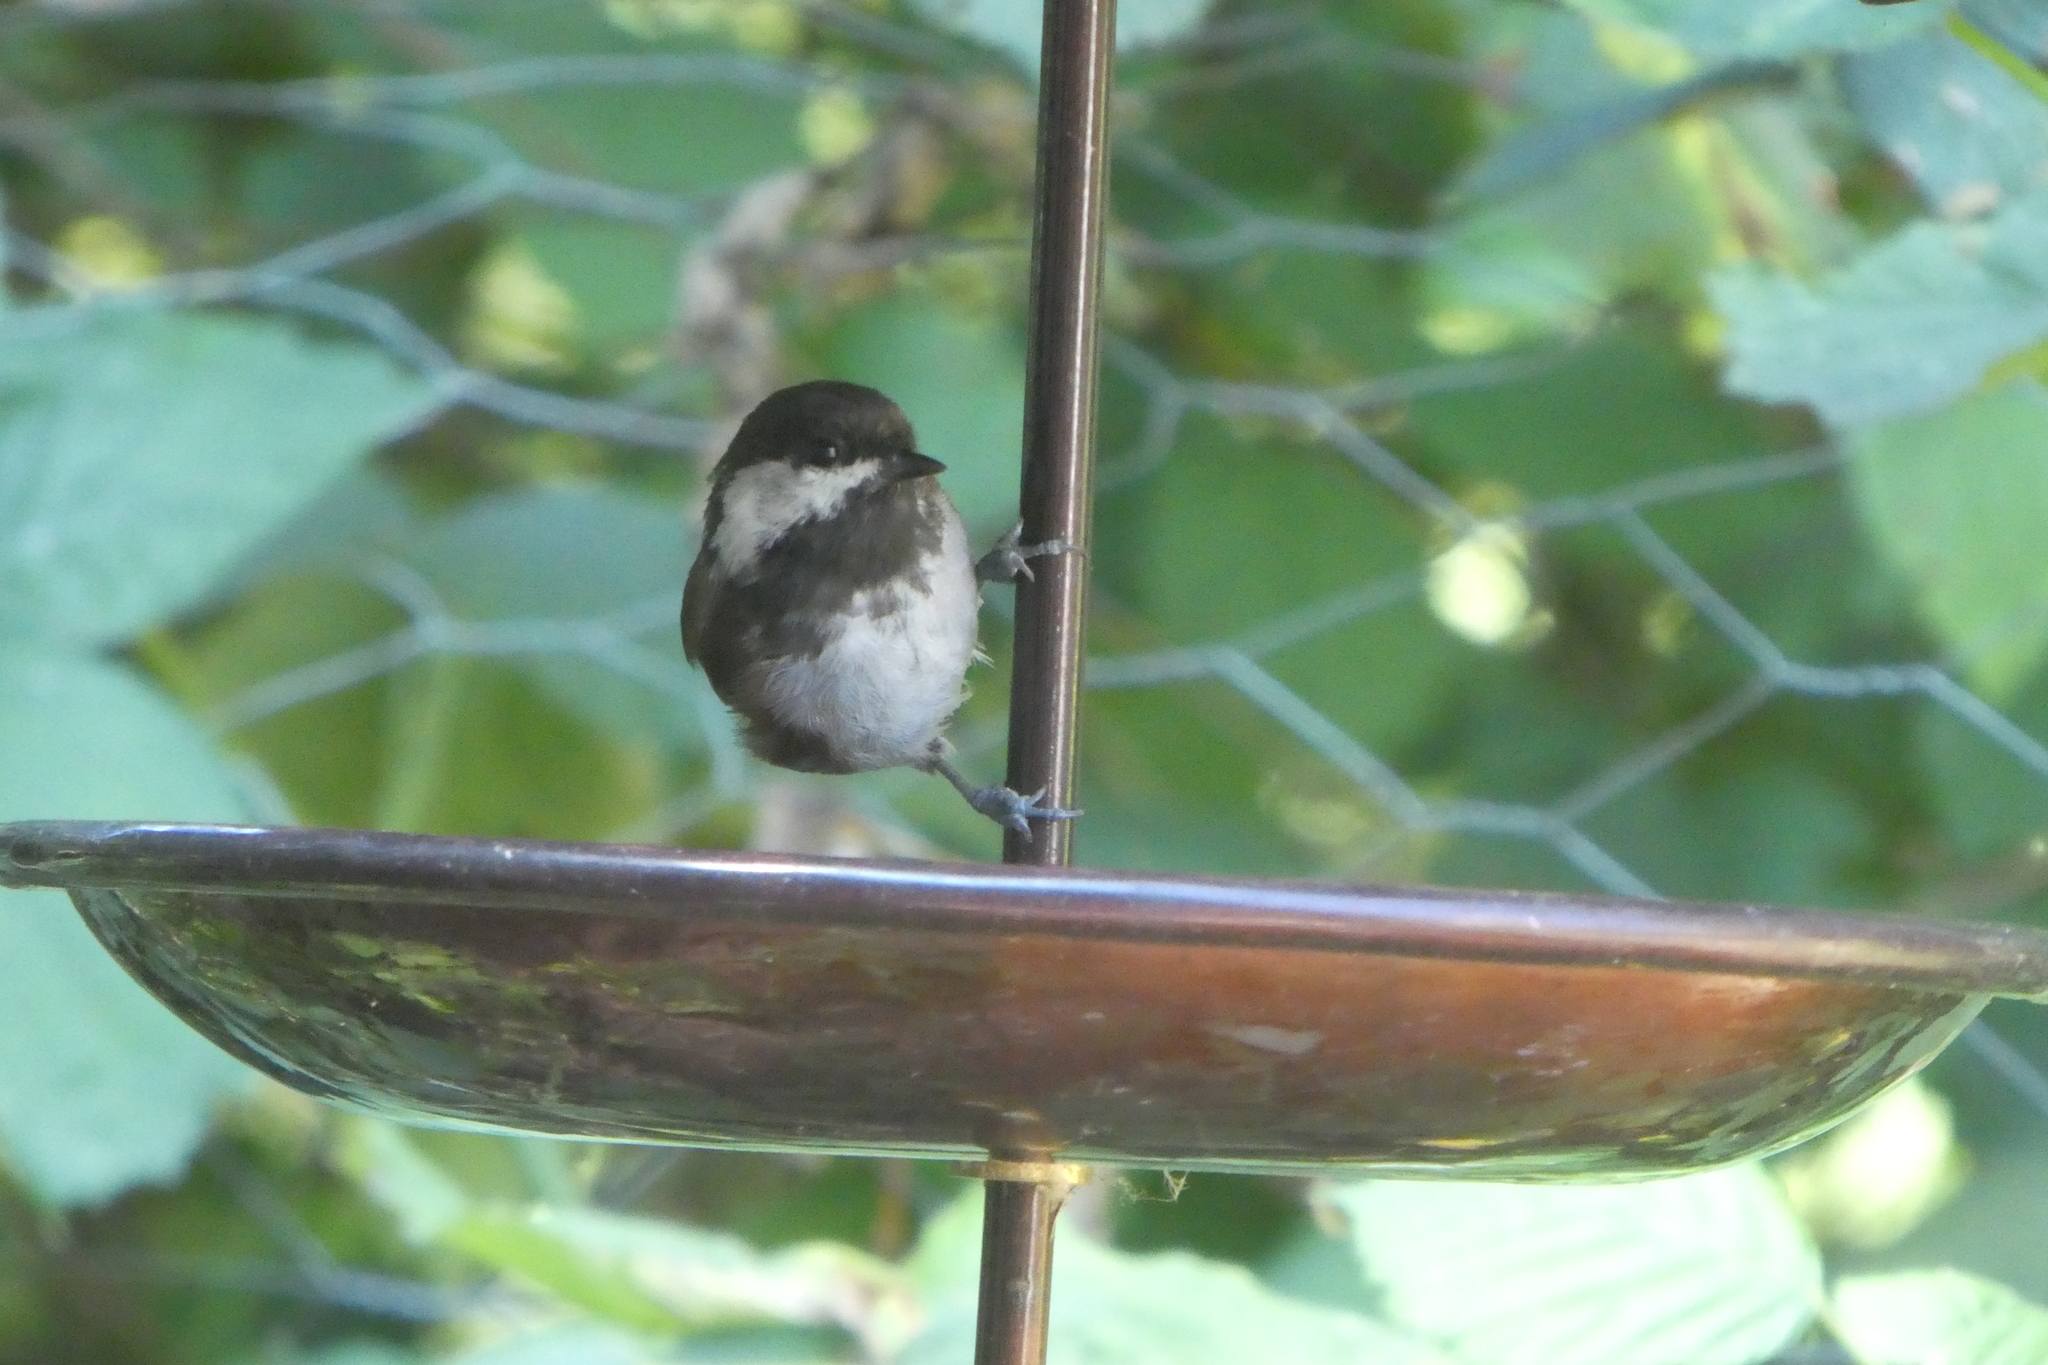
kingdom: Animalia
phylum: Chordata
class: Aves
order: Passeriformes
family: Paridae
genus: Poecile
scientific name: Poecile rufescens
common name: Chestnut-backed chickadee
